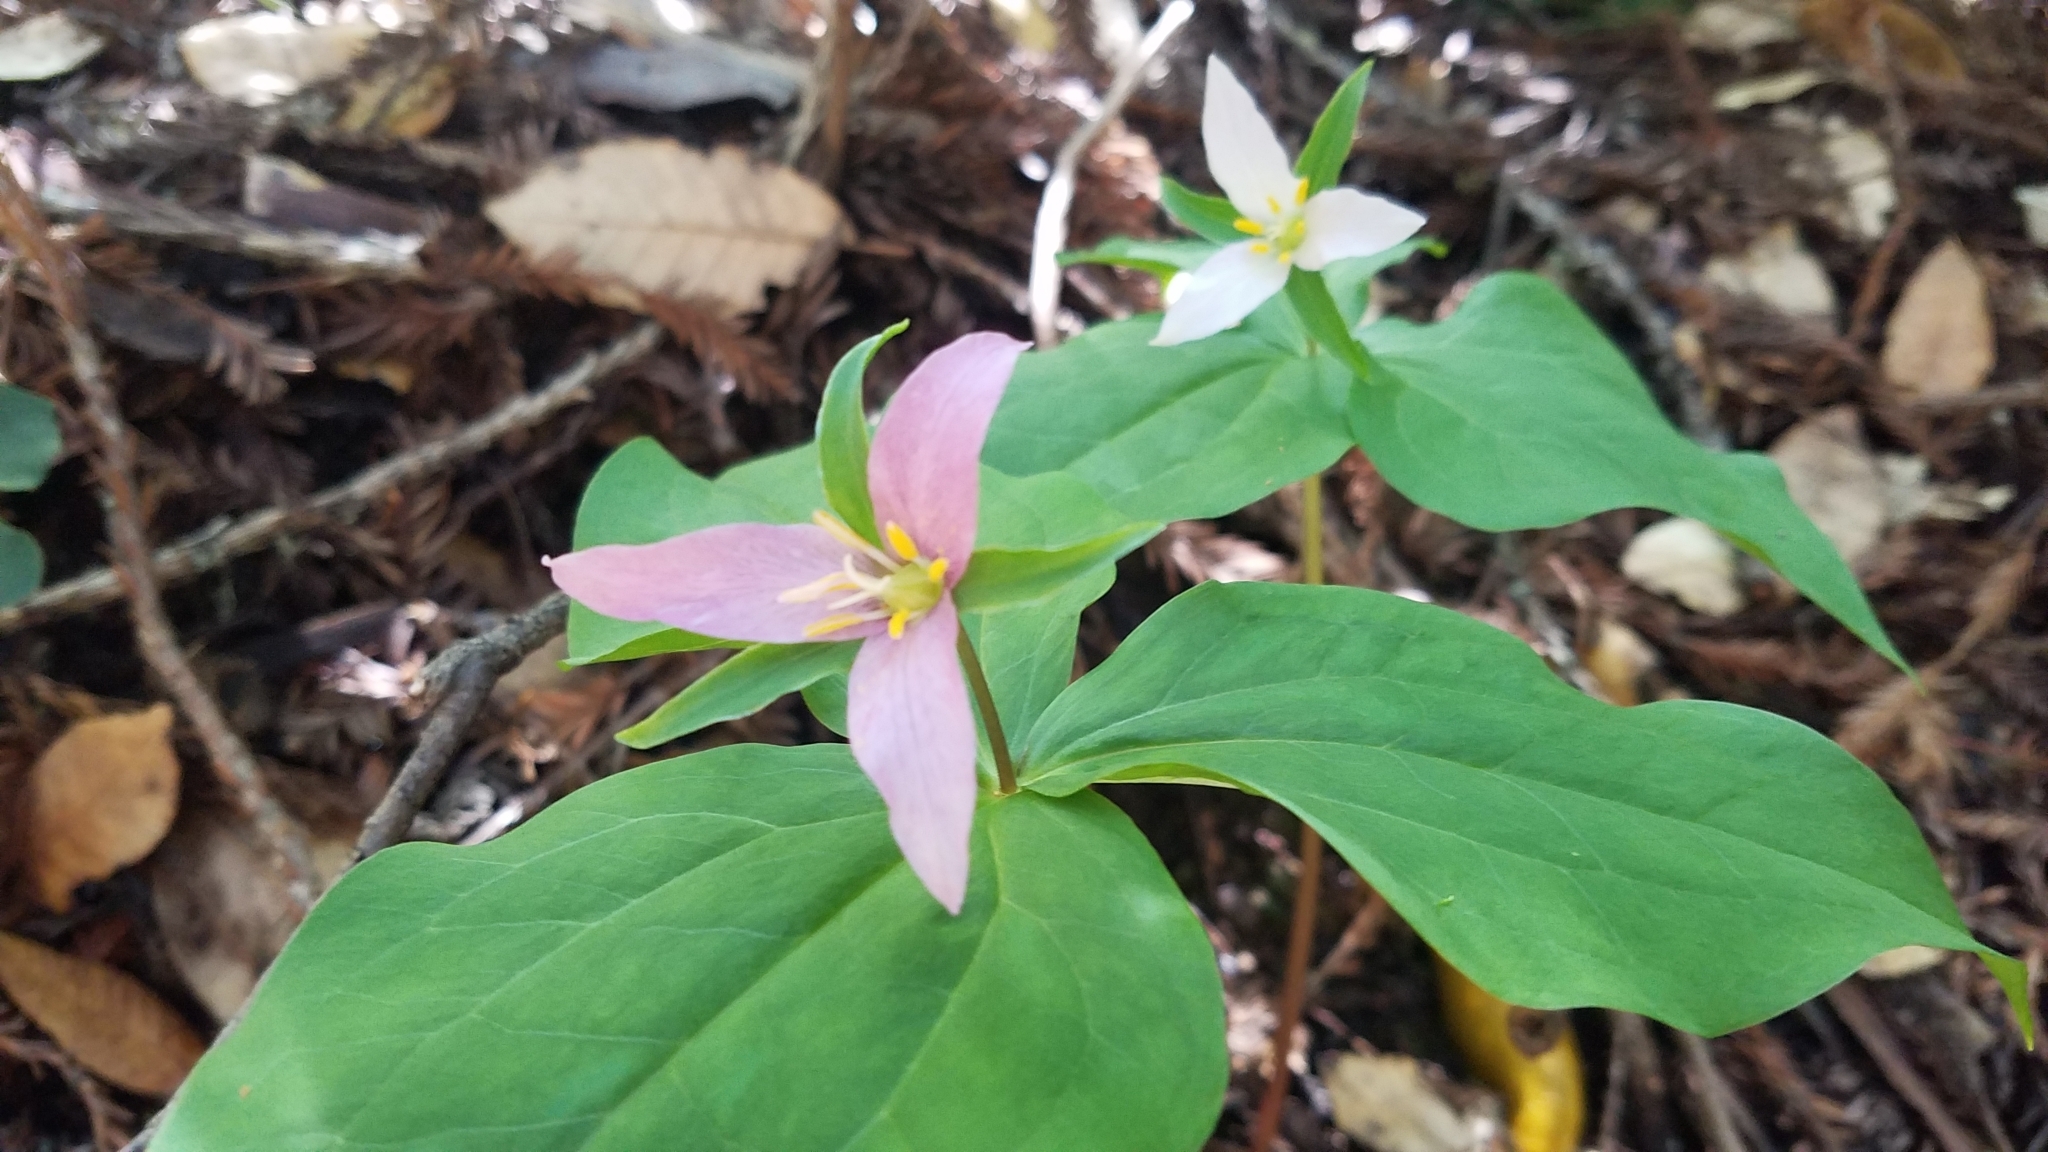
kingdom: Plantae
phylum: Tracheophyta
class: Liliopsida
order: Liliales
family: Melanthiaceae
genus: Trillium
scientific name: Trillium ovatum
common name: Pacific trillium
